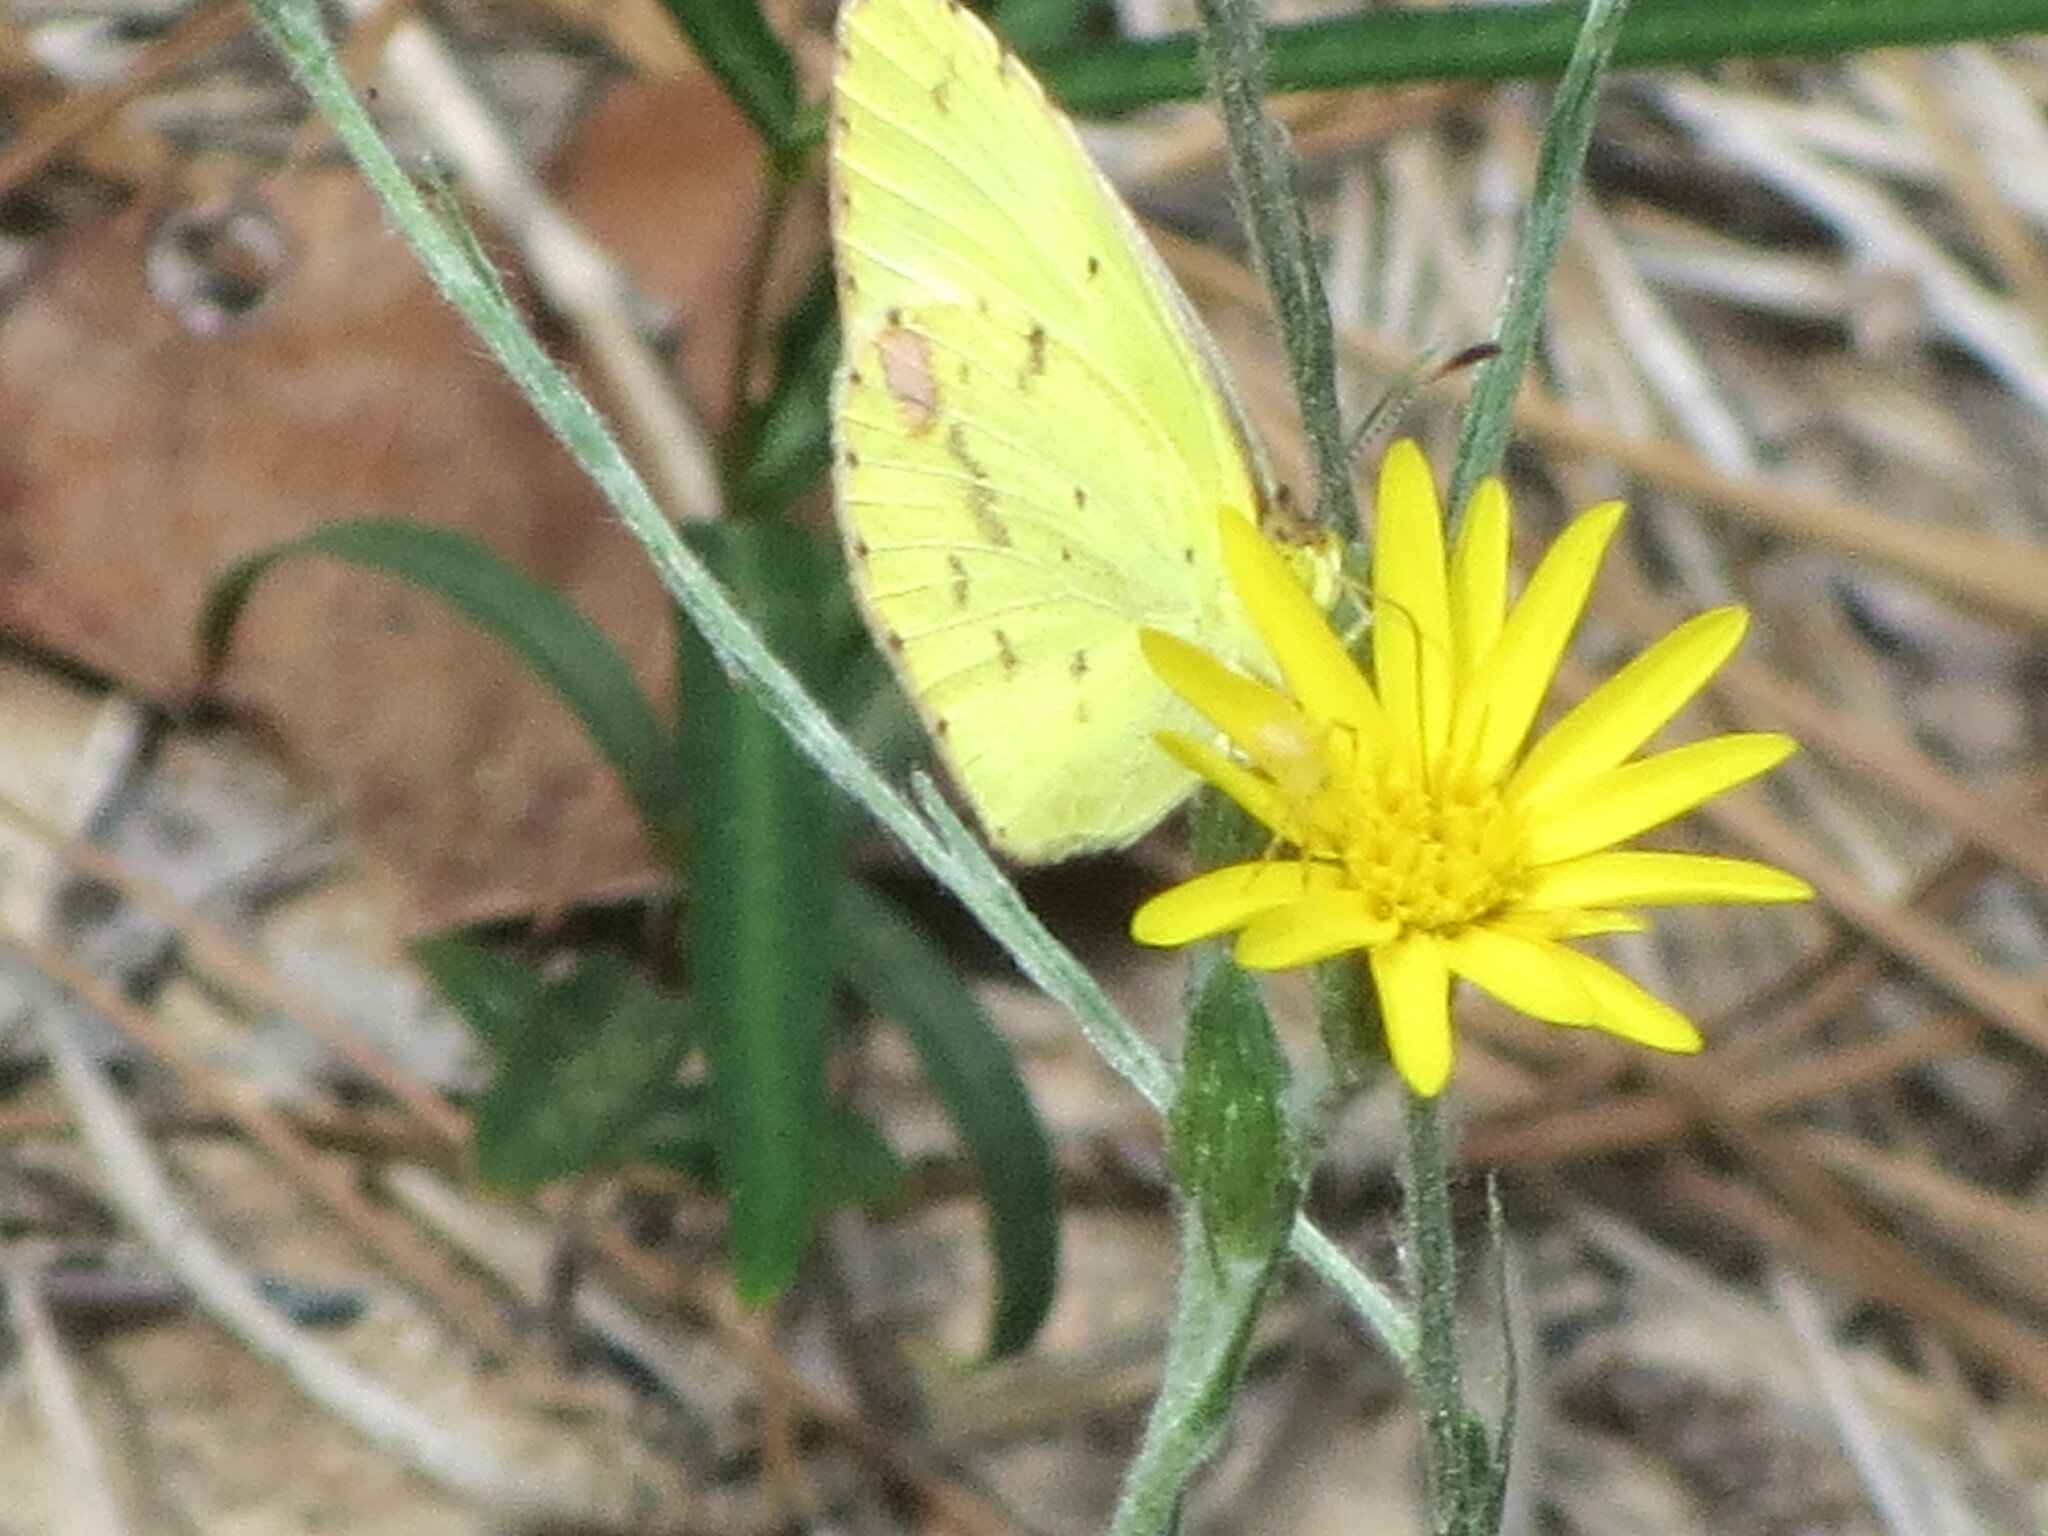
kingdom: Animalia
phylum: Arthropoda
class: Insecta
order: Lepidoptera
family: Pieridae
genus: Pyrisitia
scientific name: Pyrisitia lisa
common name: Little yellow
